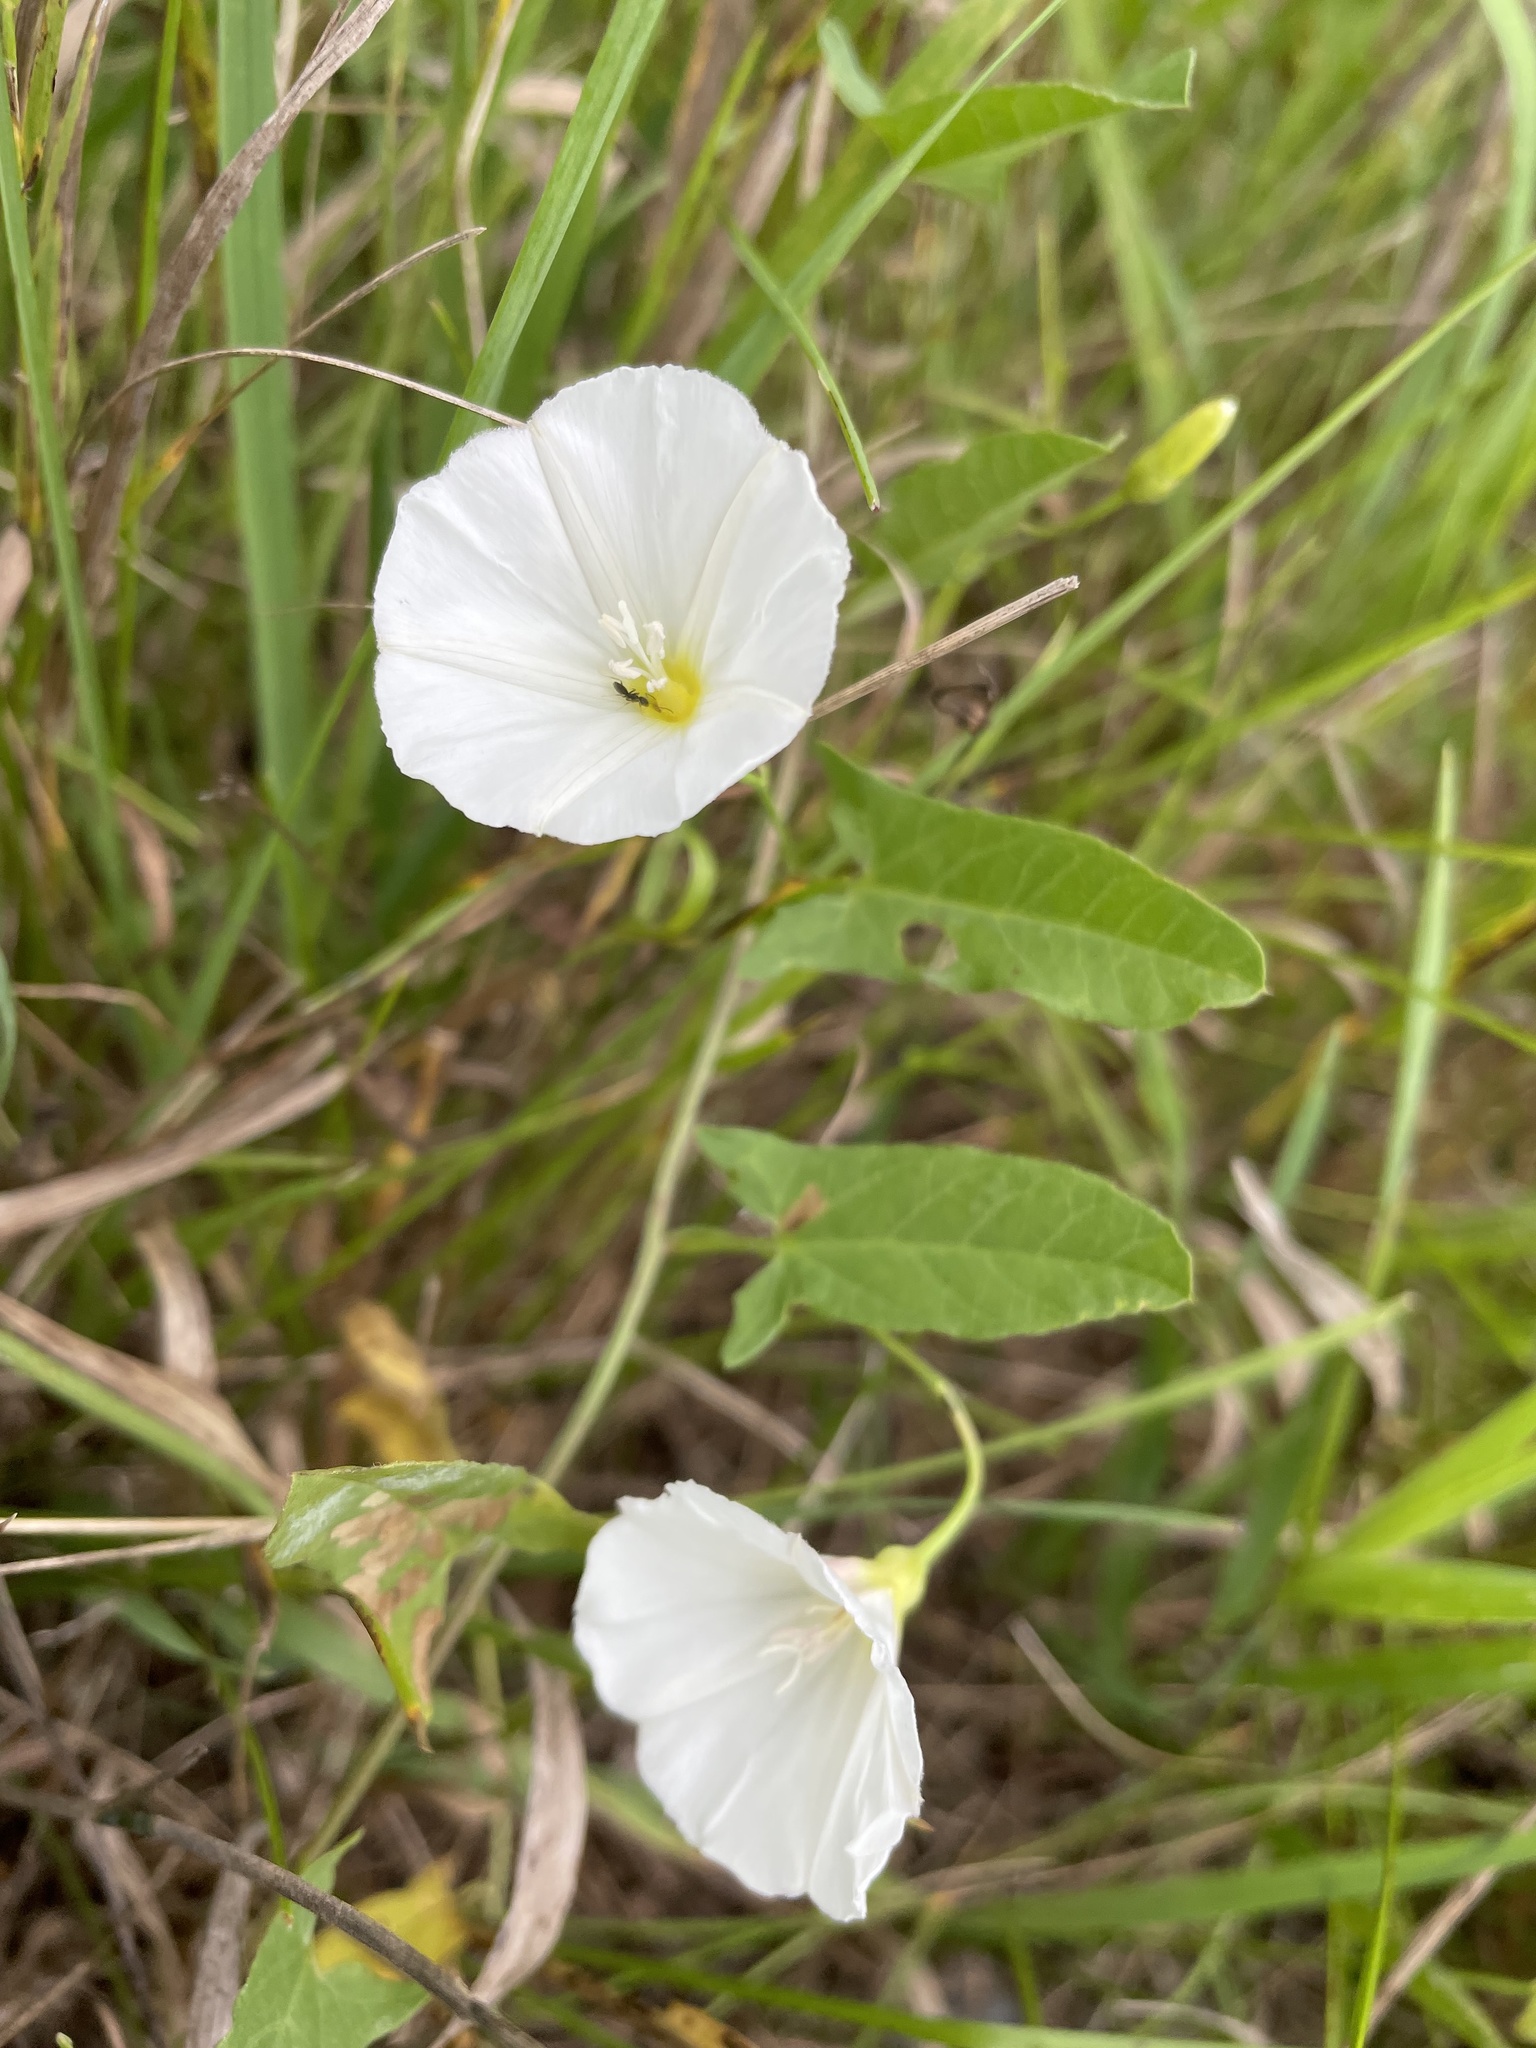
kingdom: Plantae
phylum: Tracheophyta
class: Magnoliopsida
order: Solanales
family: Convolvulaceae
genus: Convolvulus
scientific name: Convolvulus arvensis
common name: Field bindweed
